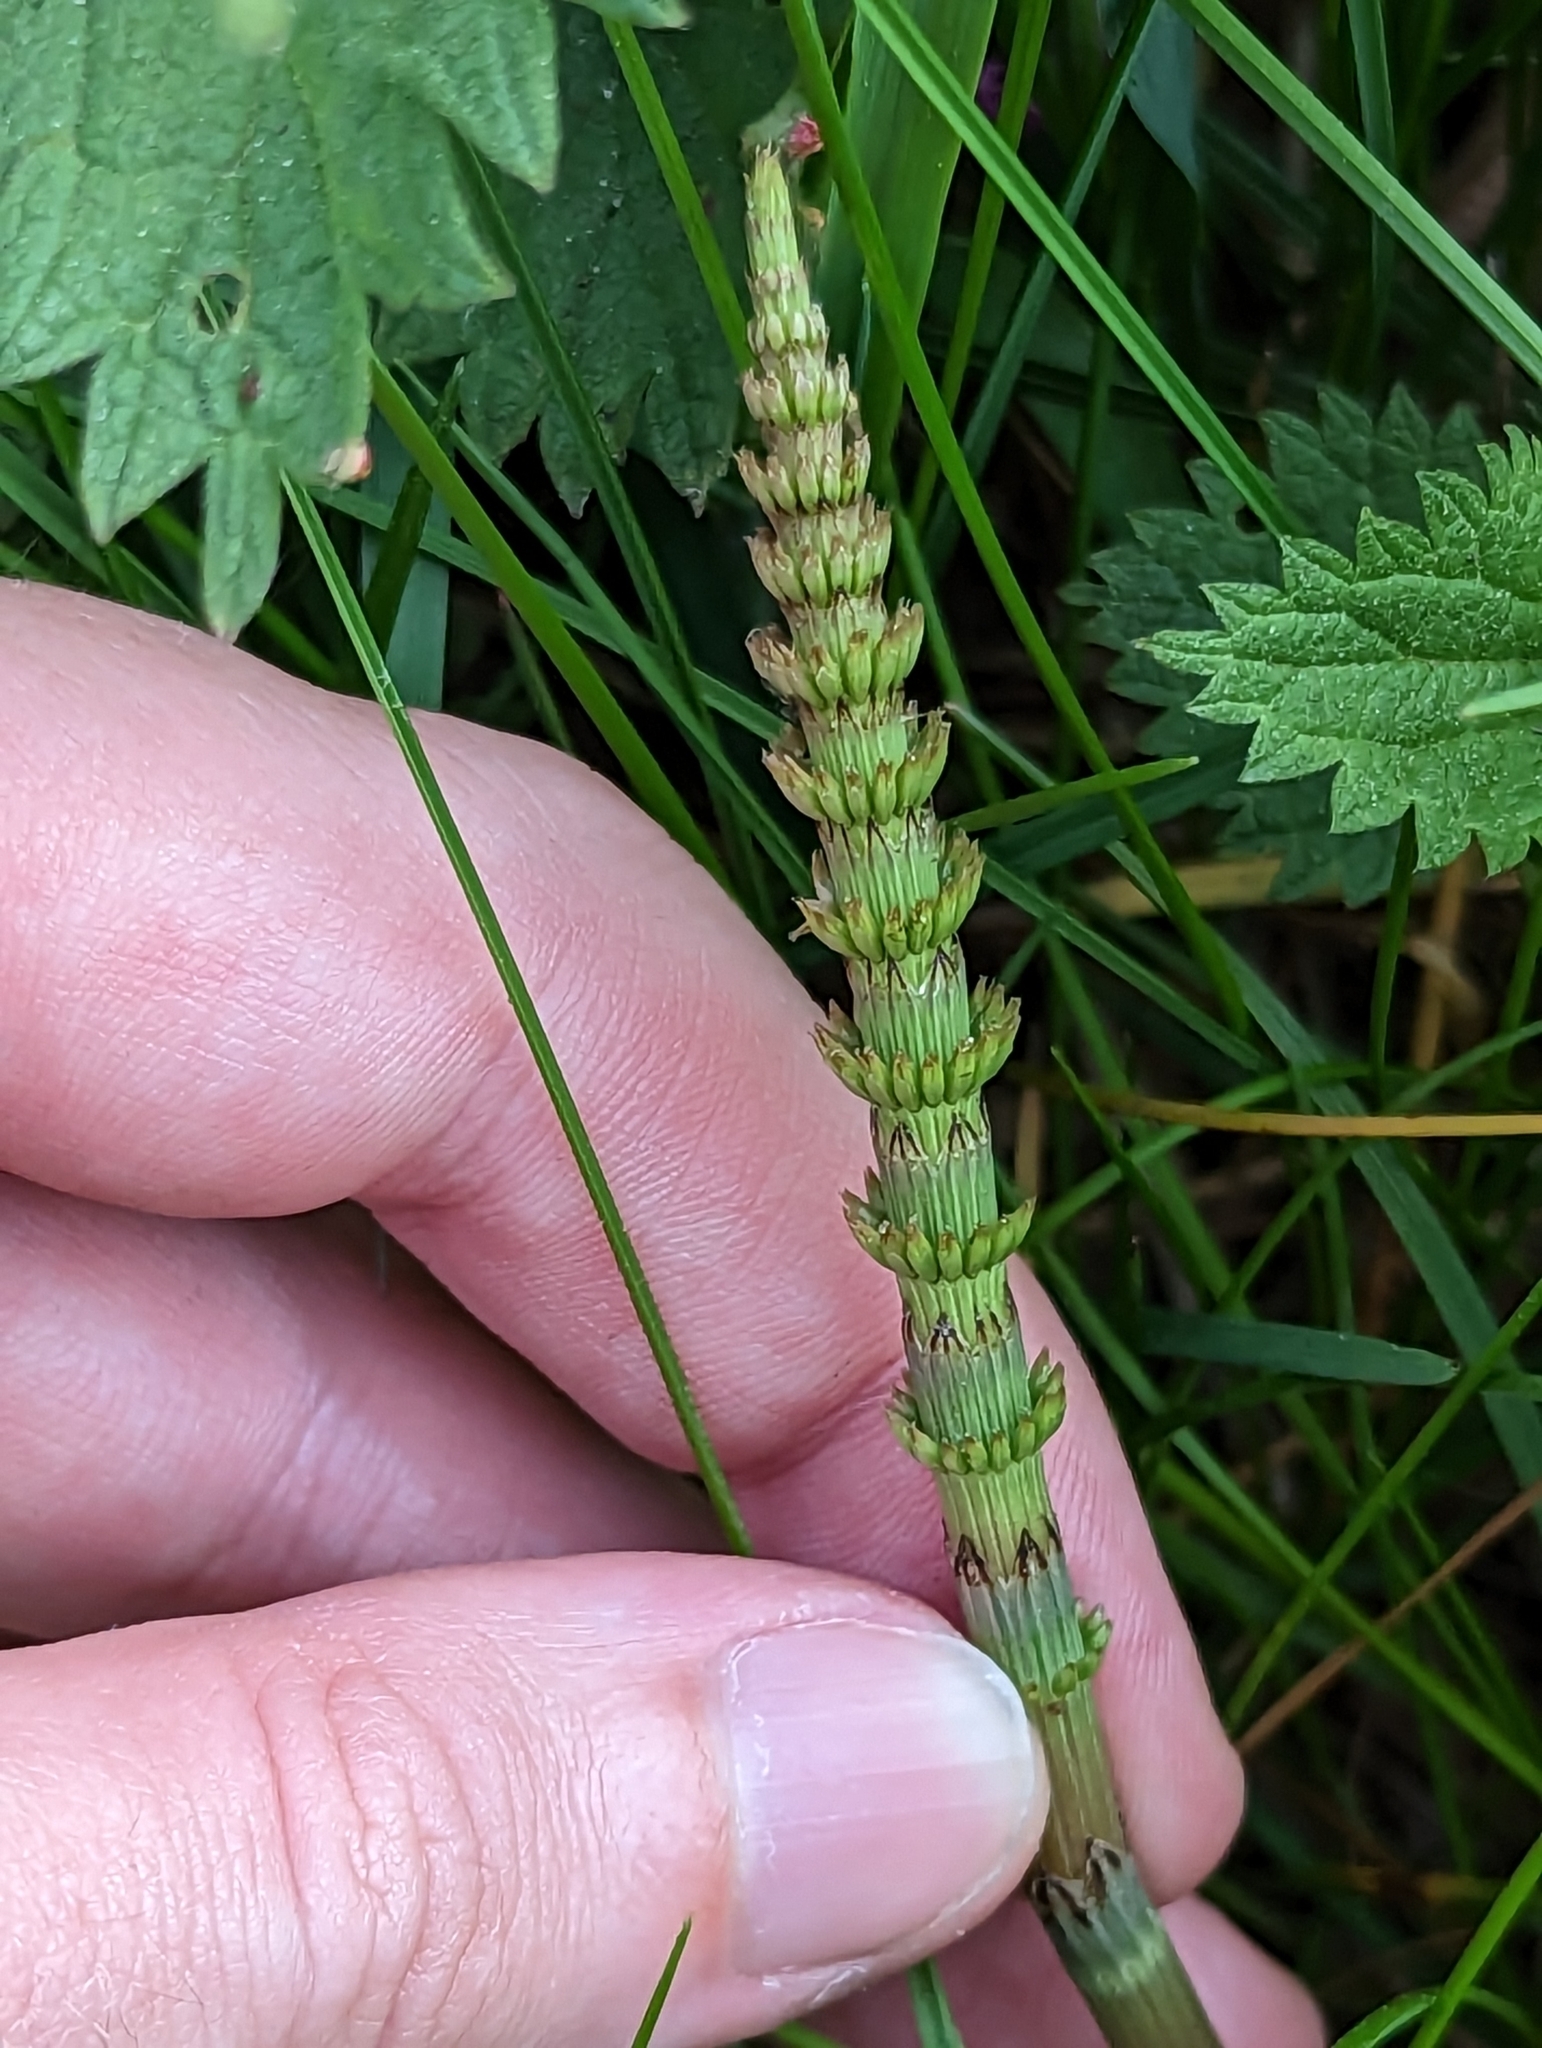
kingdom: Plantae
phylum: Tracheophyta
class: Polypodiopsida
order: Equisetales
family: Equisetaceae
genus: Equisetum
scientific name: Equisetum arvense
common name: Field horsetail
